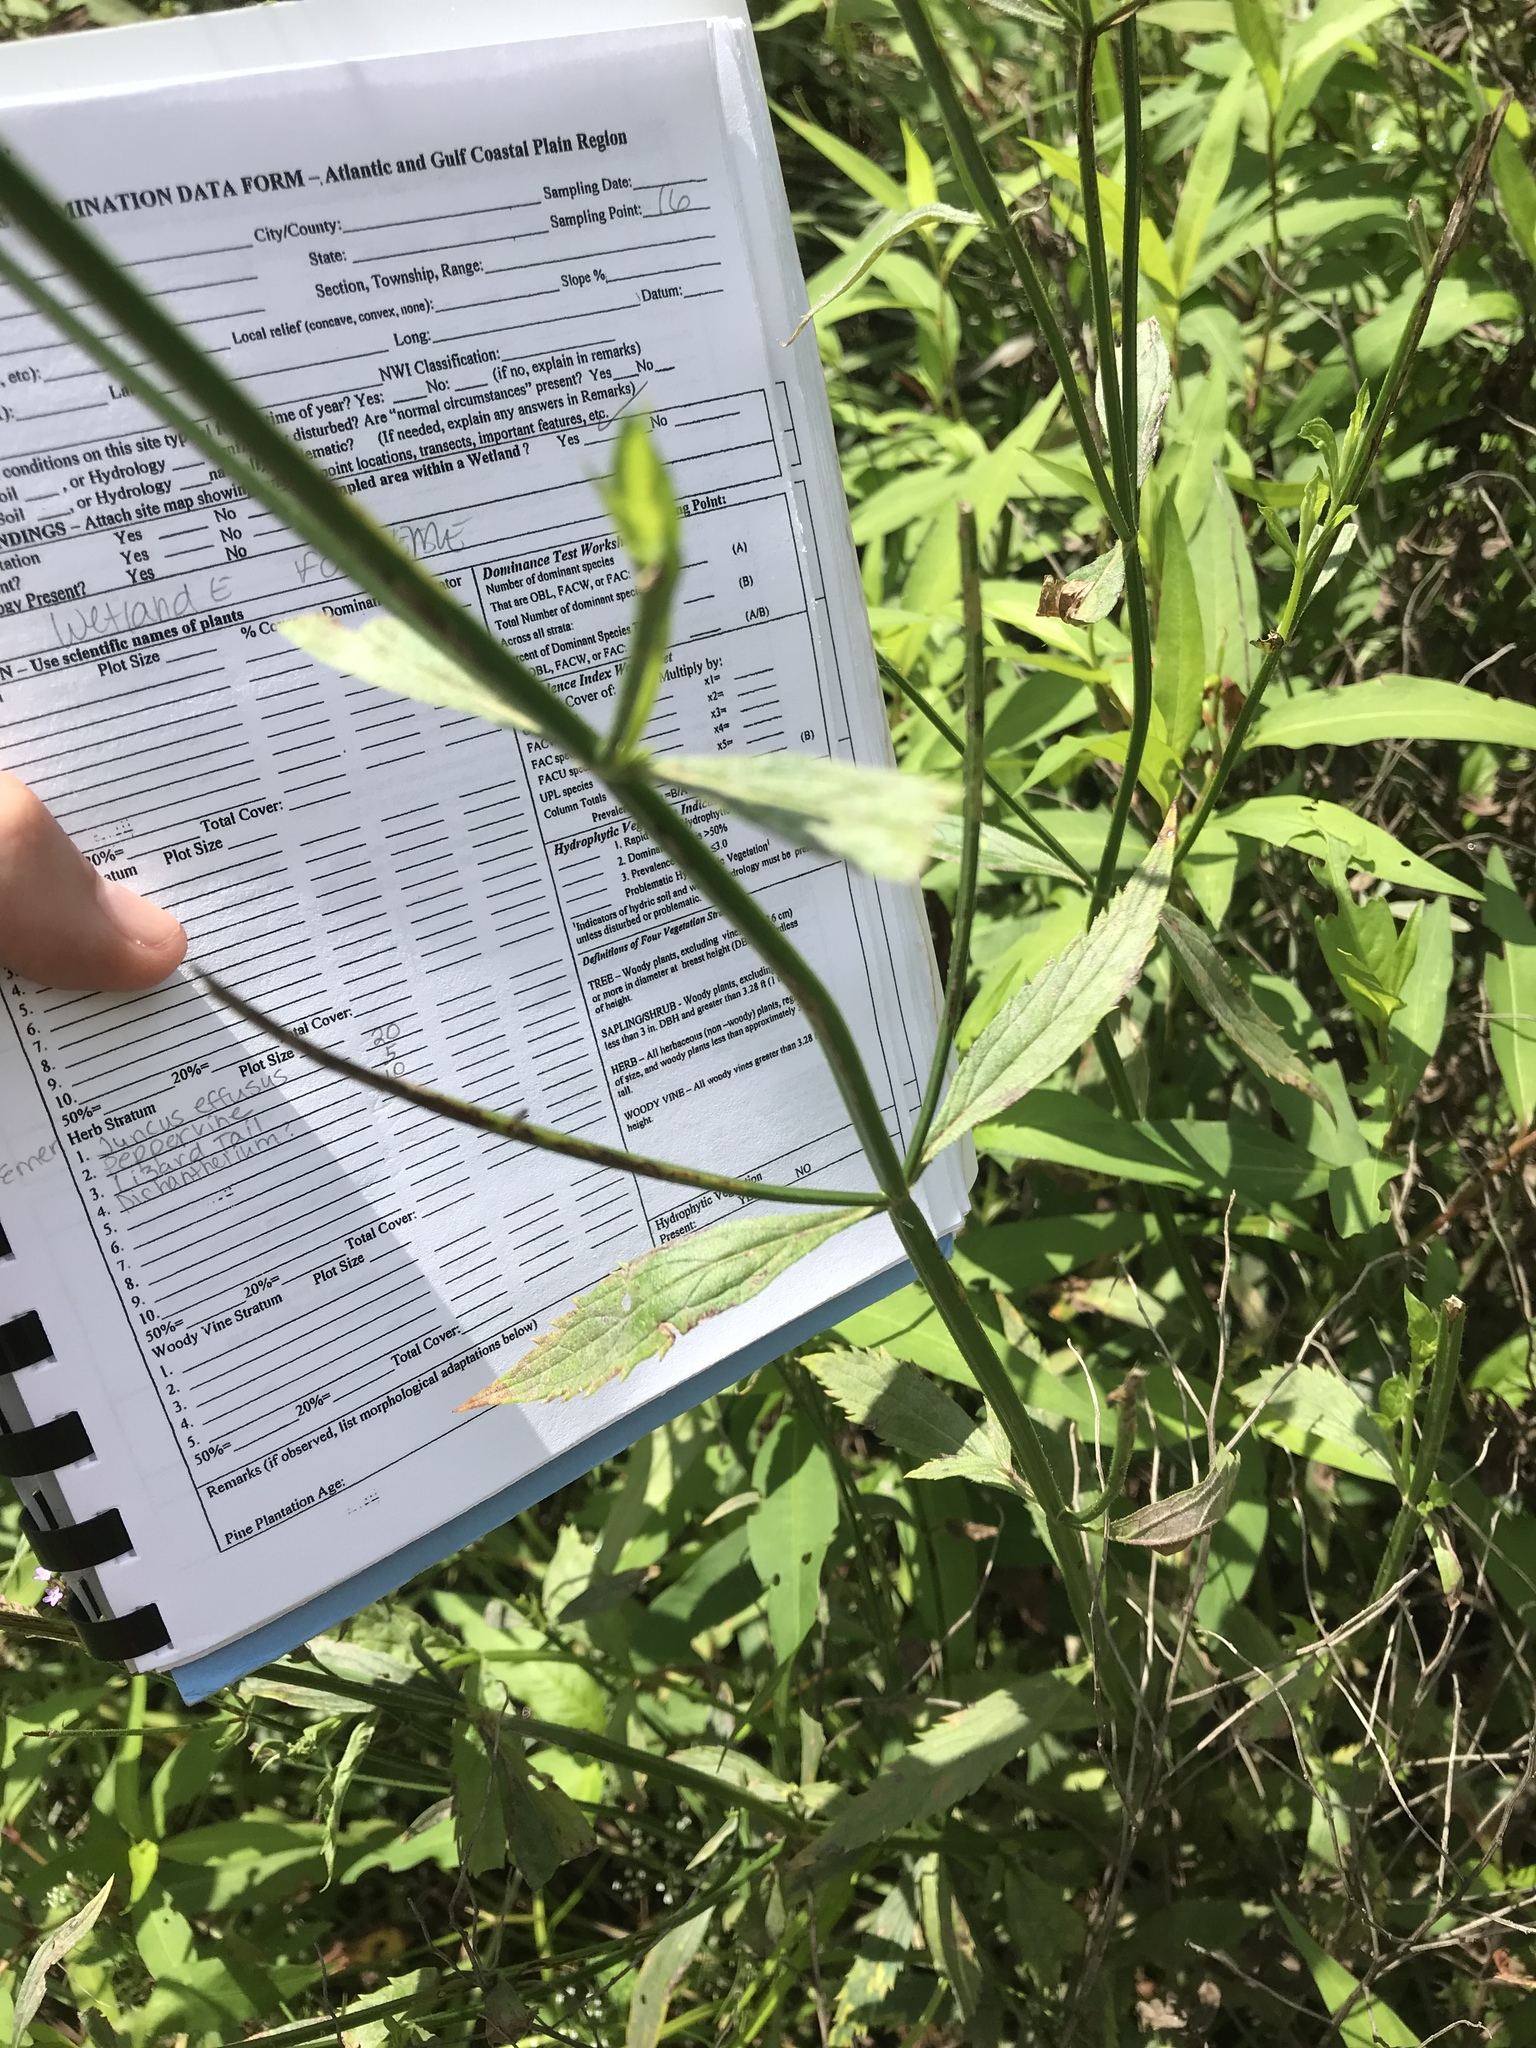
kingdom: Plantae
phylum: Tracheophyta
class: Magnoliopsida
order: Lamiales
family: Verbenaceae
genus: Verbena
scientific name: Verbena brasiliensis
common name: Brazilian vervain
